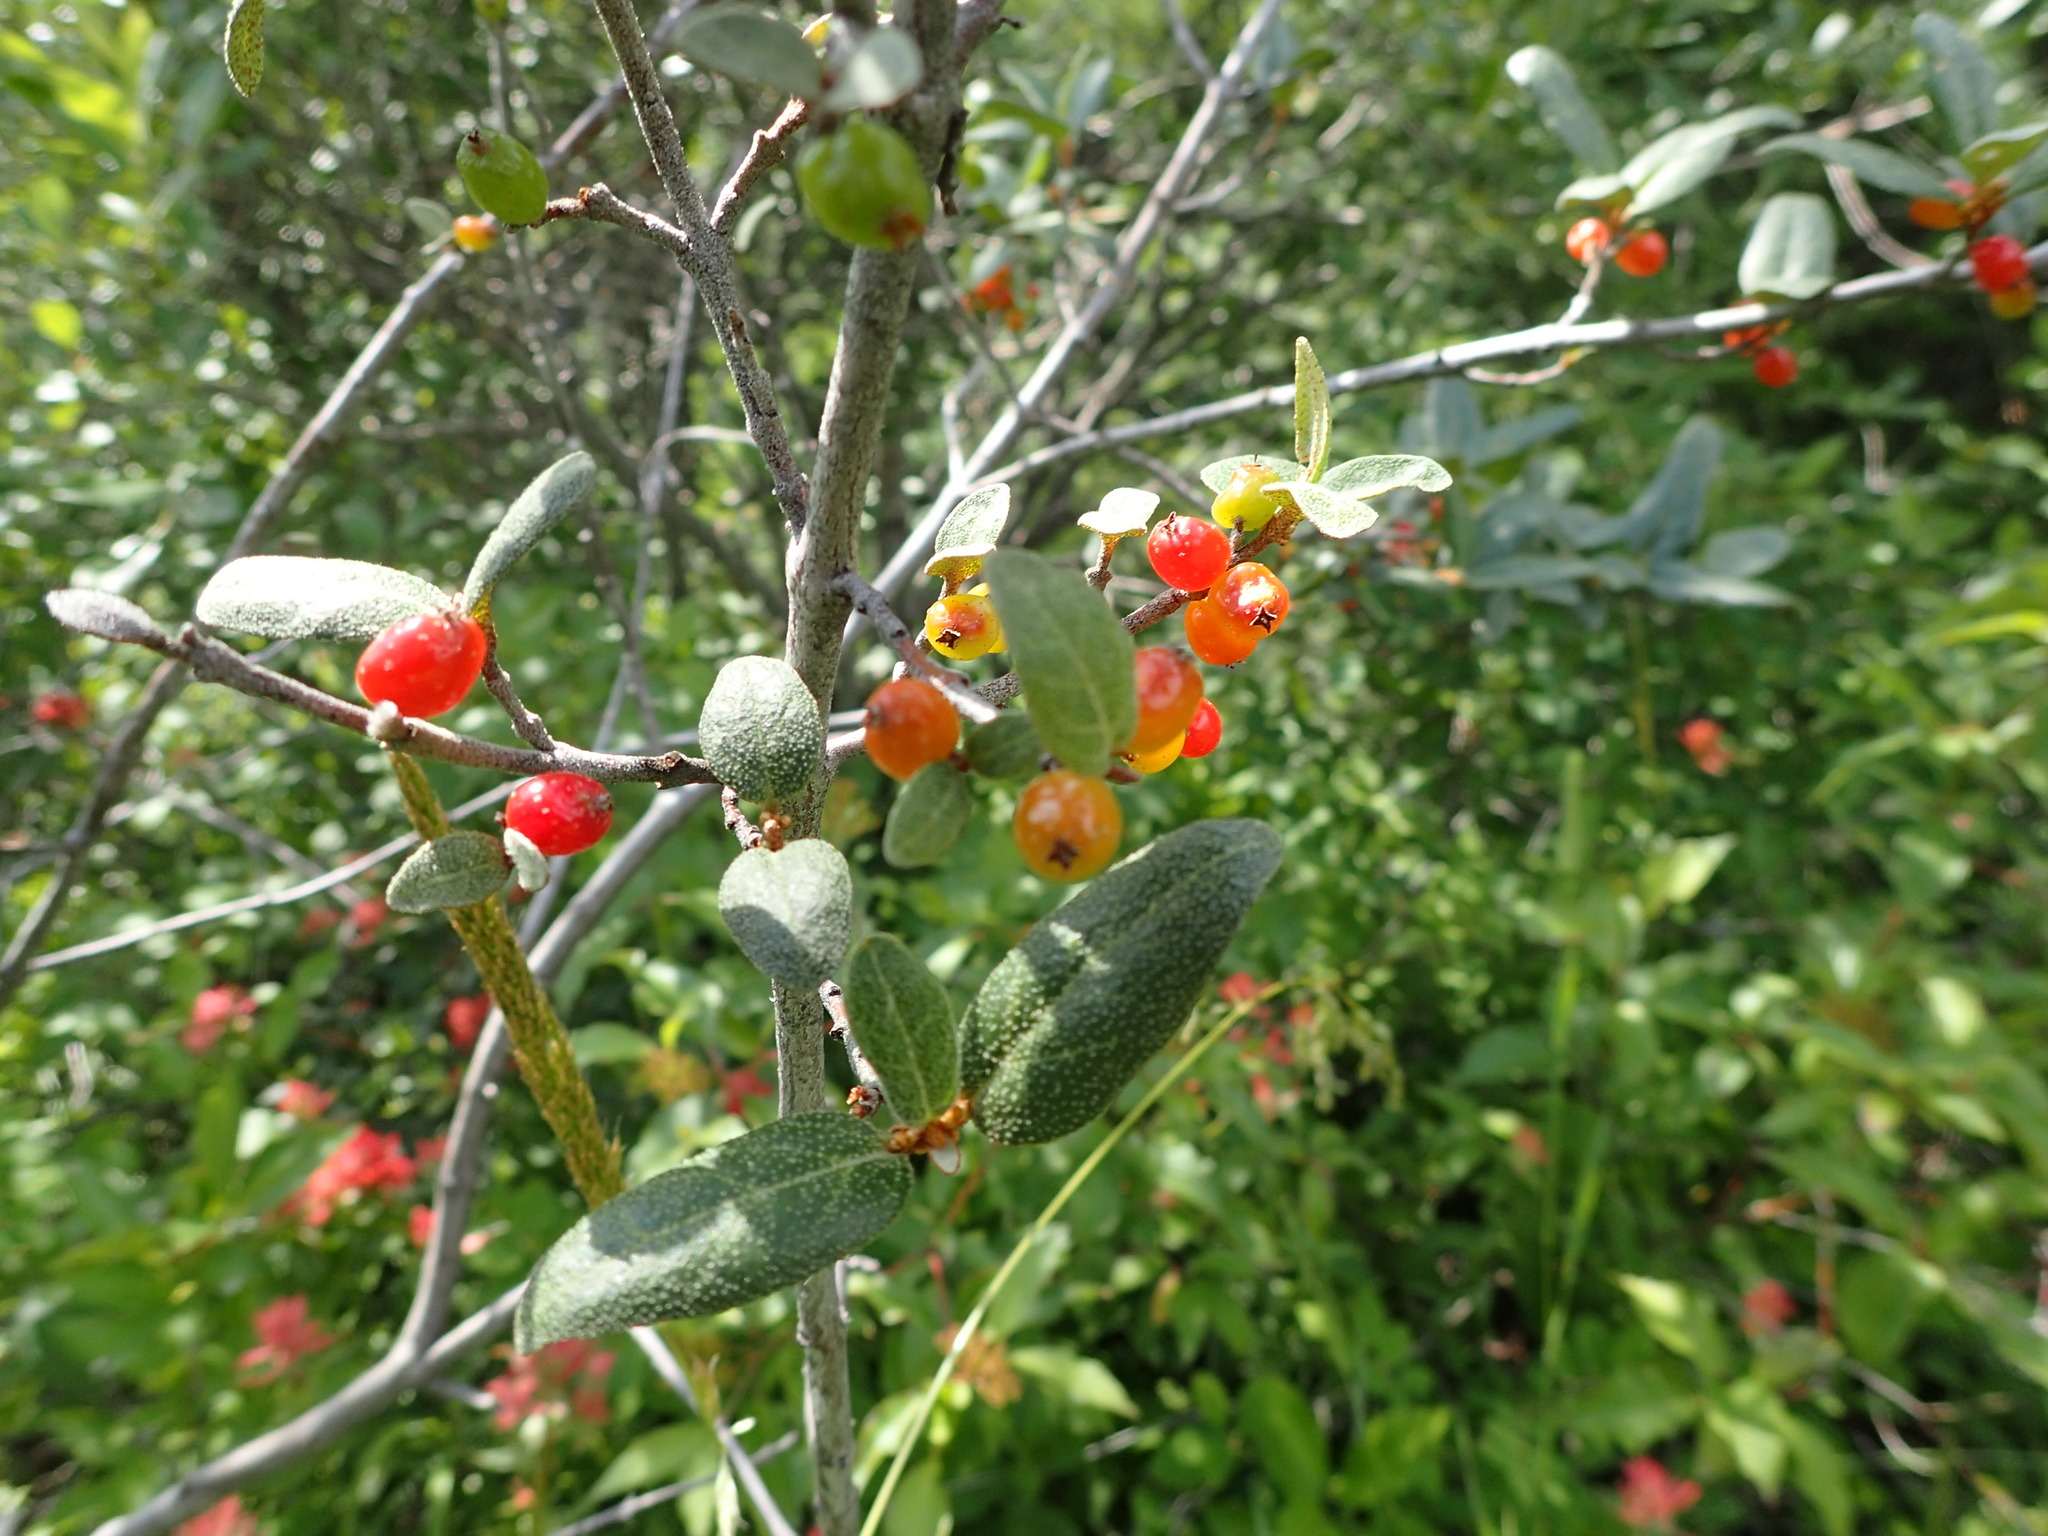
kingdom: Plantae
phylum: Tracheophyta
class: Magnoliopsida
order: Rosales
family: Elaeagnaceae
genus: Shepherdia
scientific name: Shepherdia canadensis
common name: Soapberry
